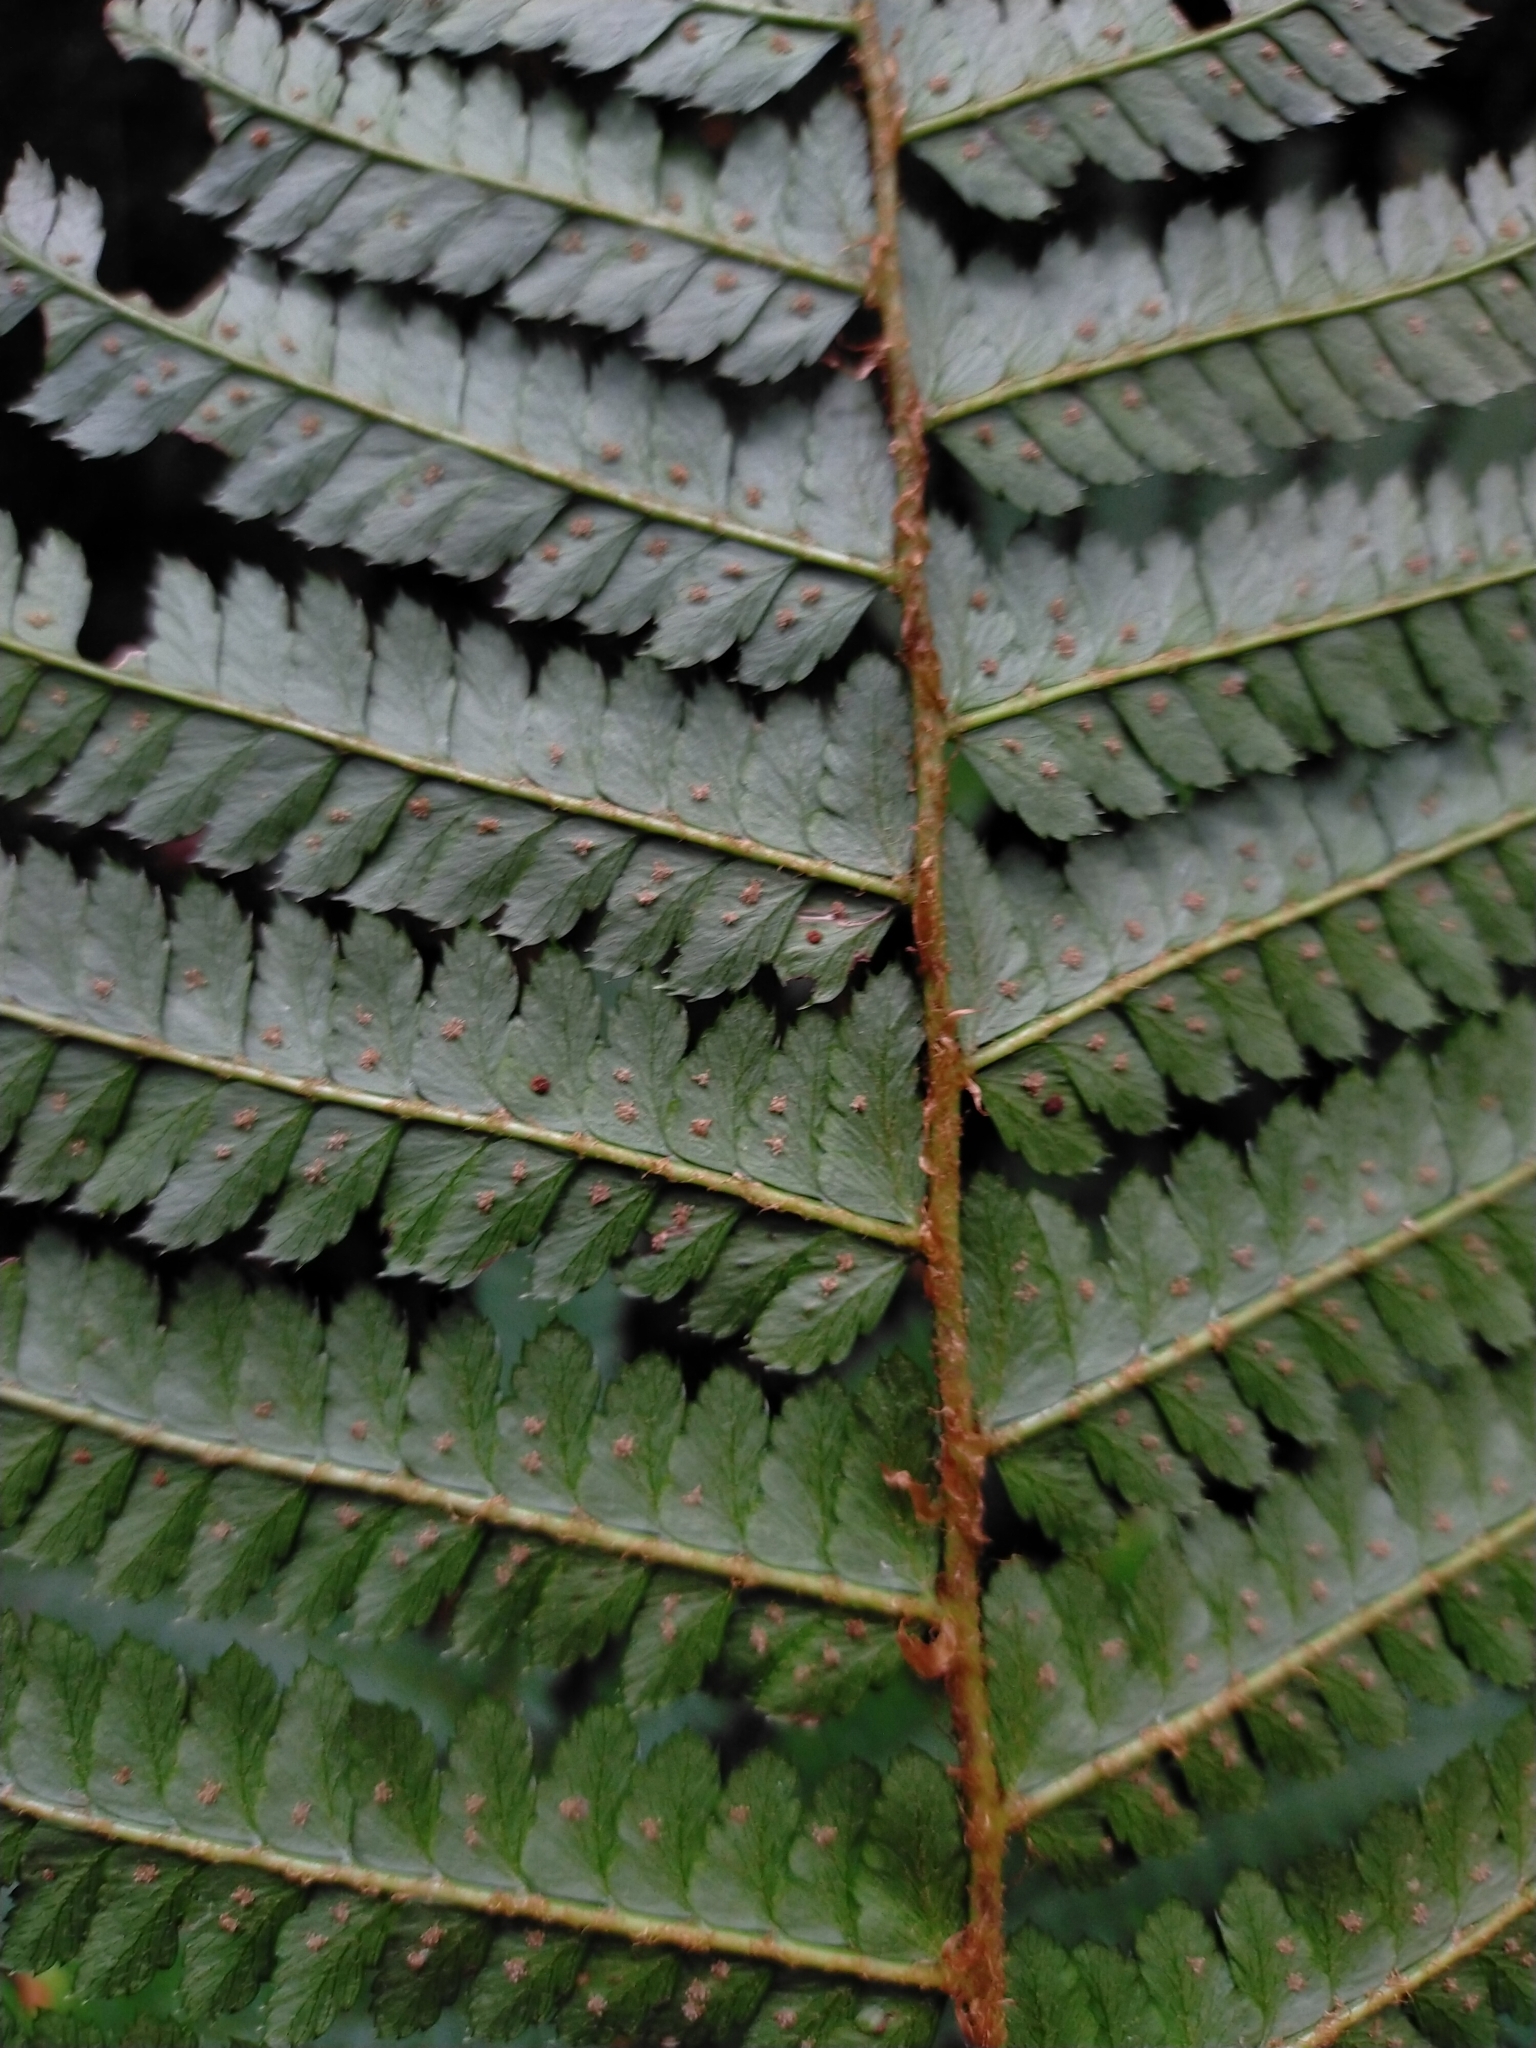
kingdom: Plantae
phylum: Tracheophyta
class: Polypodiopsida
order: Polypodiales
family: Dryopteridaceae
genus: Polystichum
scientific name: Polystichum mucronifolium
